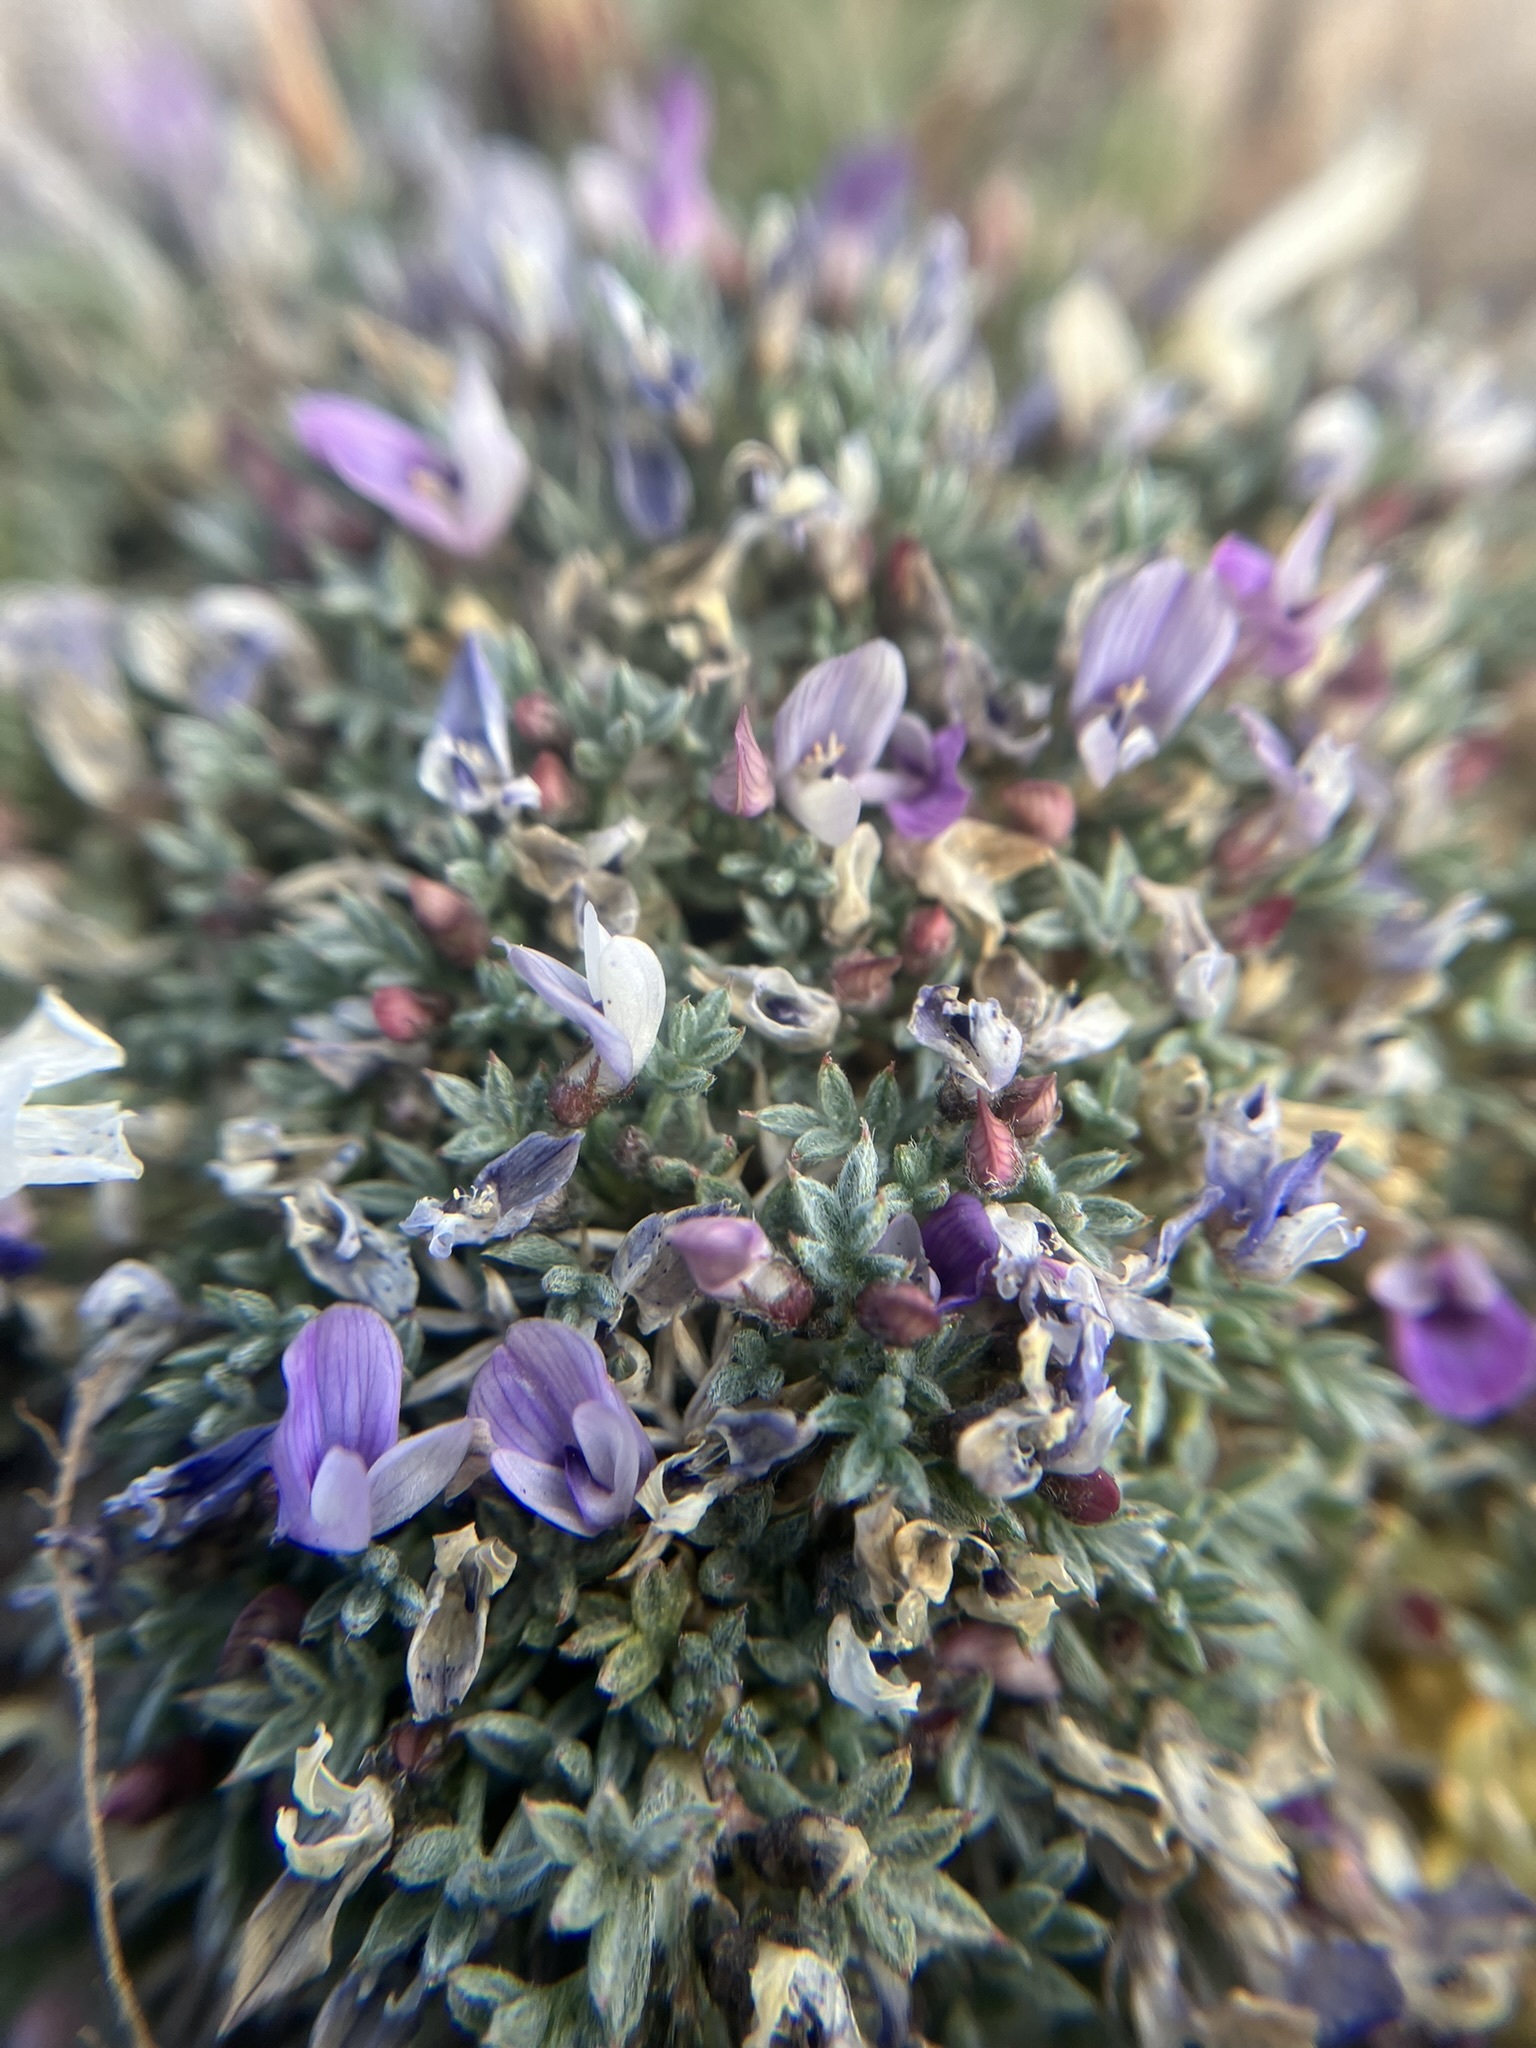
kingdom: Plantae
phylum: Tracheophyta
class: Magnoliopsida
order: Fabales
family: Fabaceae
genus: Astragalus
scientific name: Astragalus kentrophyta
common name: Prickly milk-vetch
